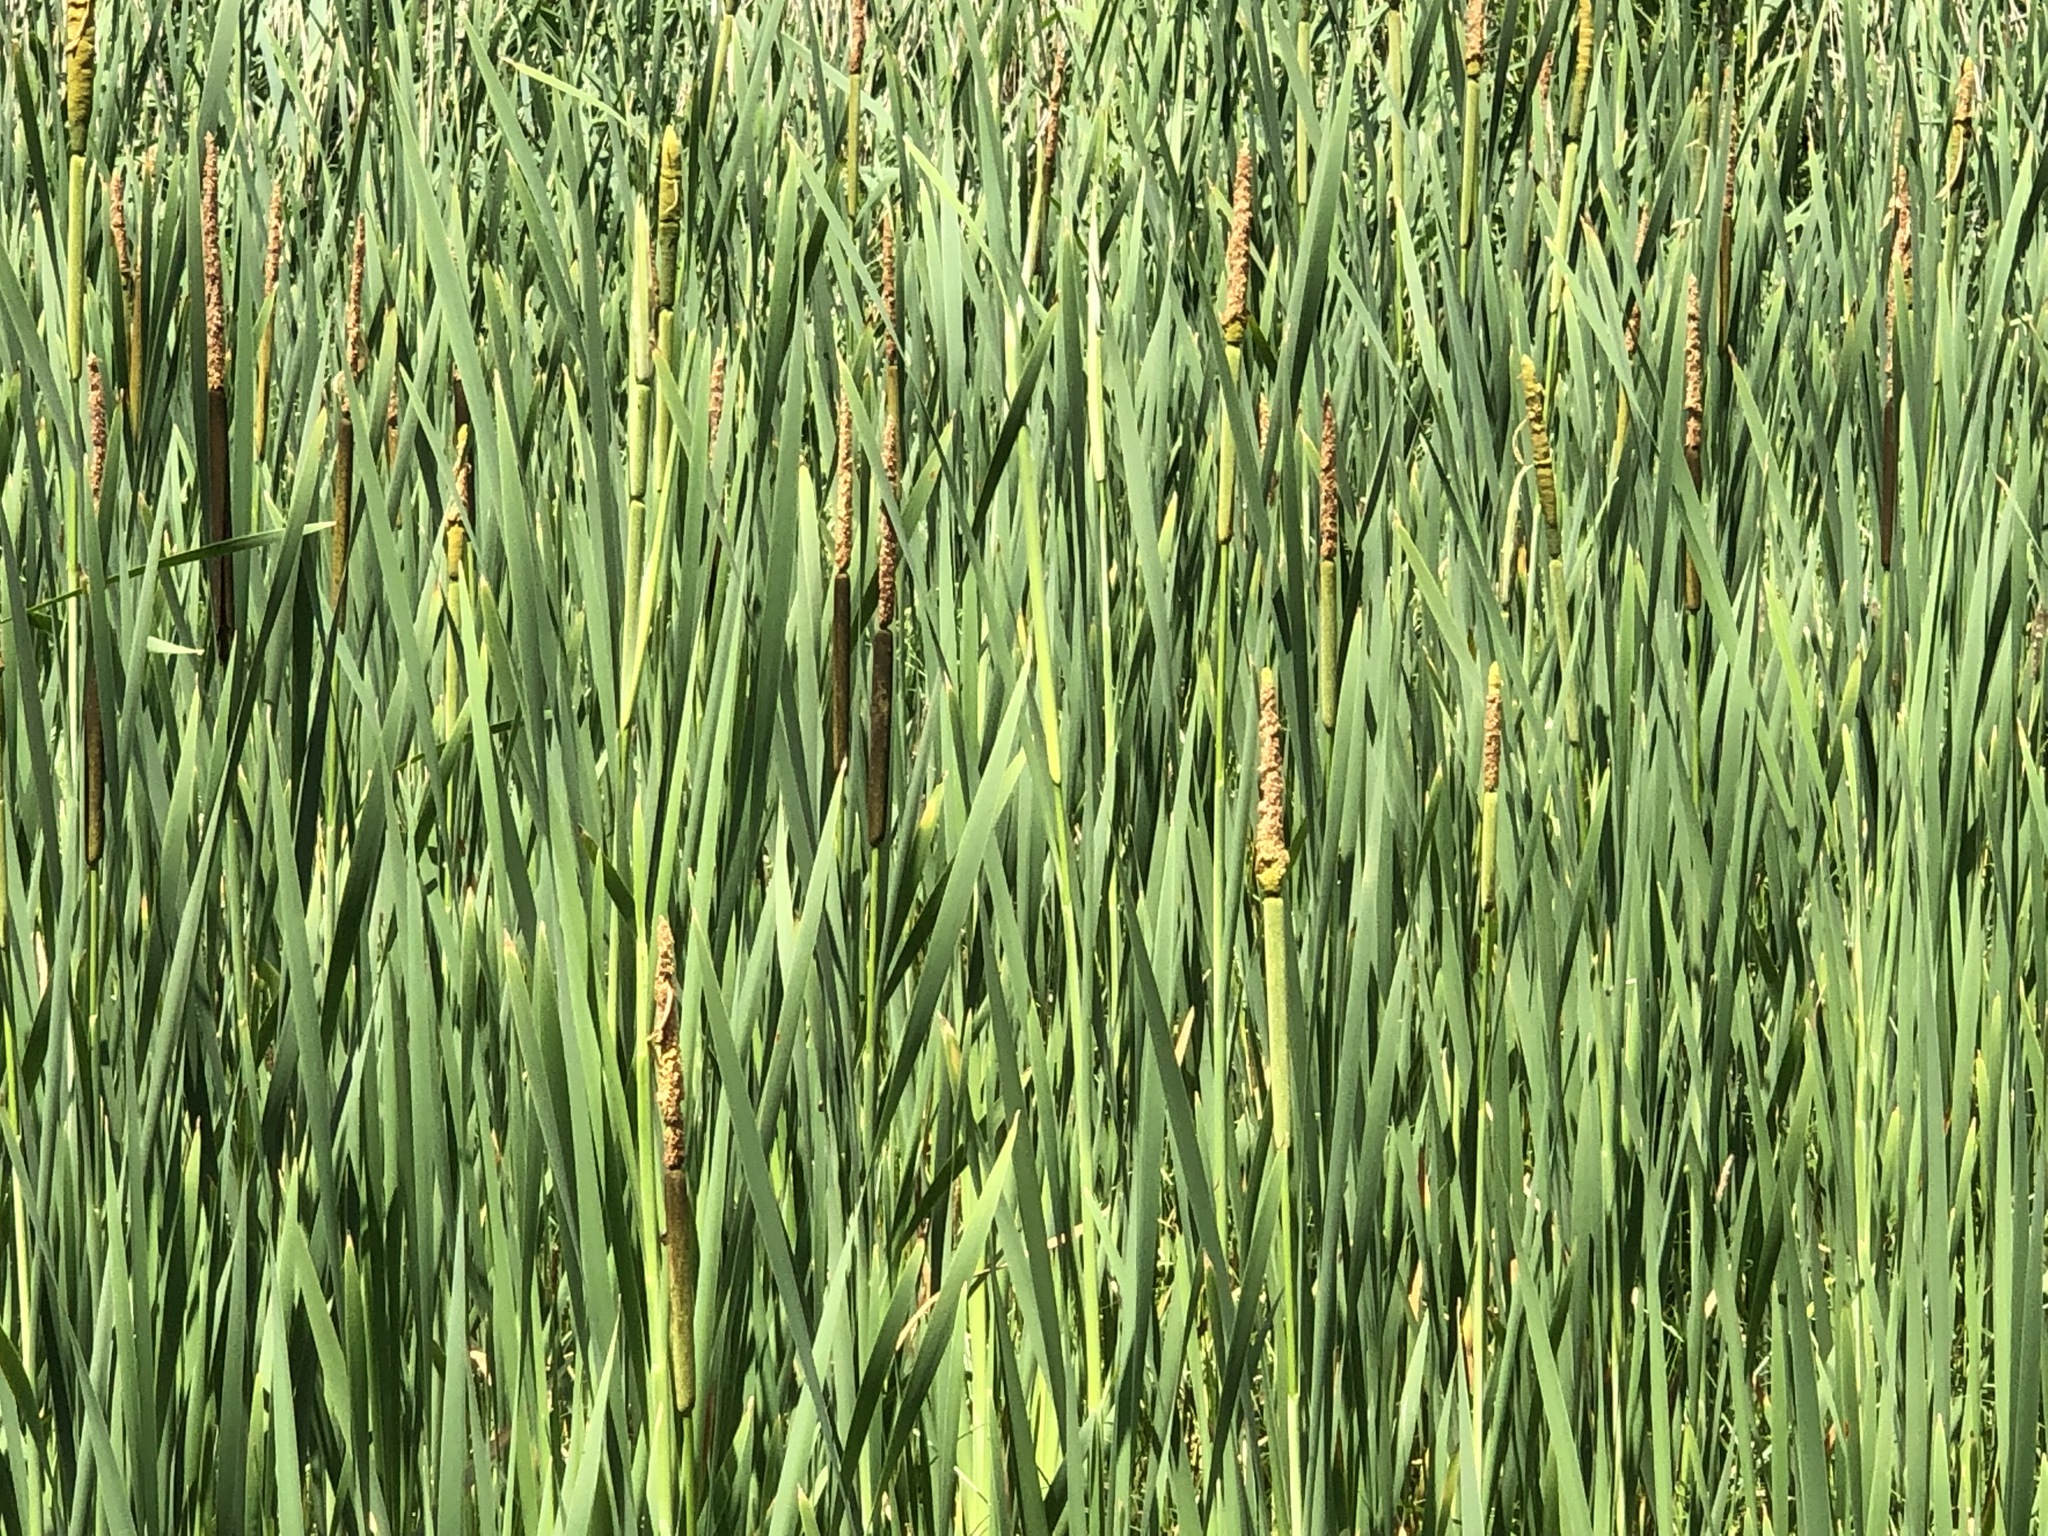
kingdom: Plantae
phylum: Tracheophyta
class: Liliopsida
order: Poales
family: Typhaceae
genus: Typha
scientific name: Typha latifolia
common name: Broadleaf cattail
